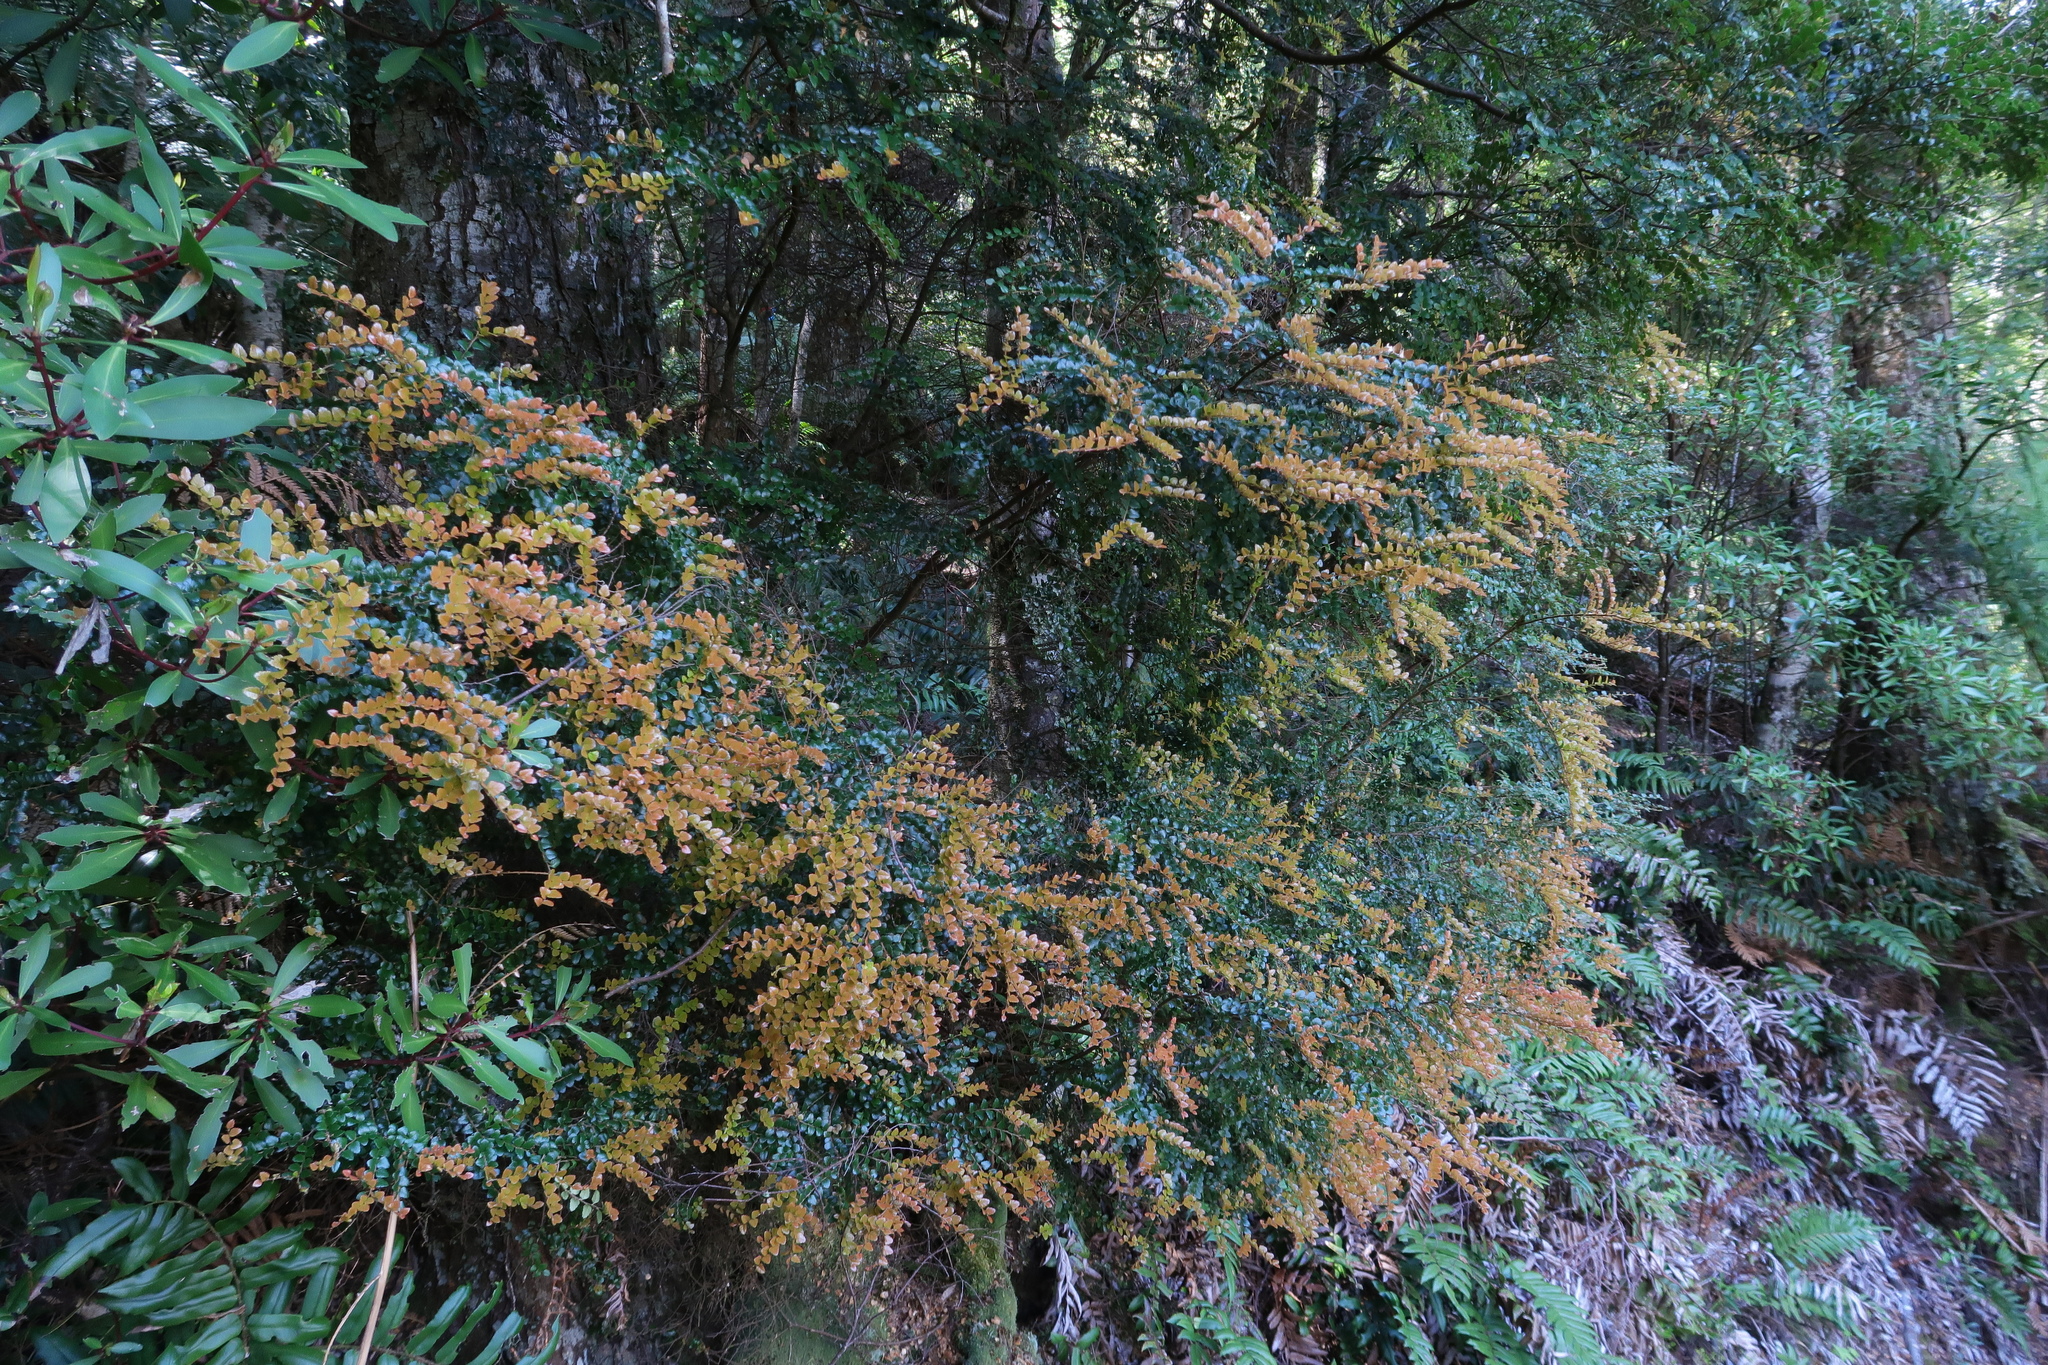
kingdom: Plantae
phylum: Tracheophyta
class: Magnoliopsida
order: Fagales
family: Nothofagaceae
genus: Nothofagus
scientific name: Nothofagus cunninghamii
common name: Myrtle beech
